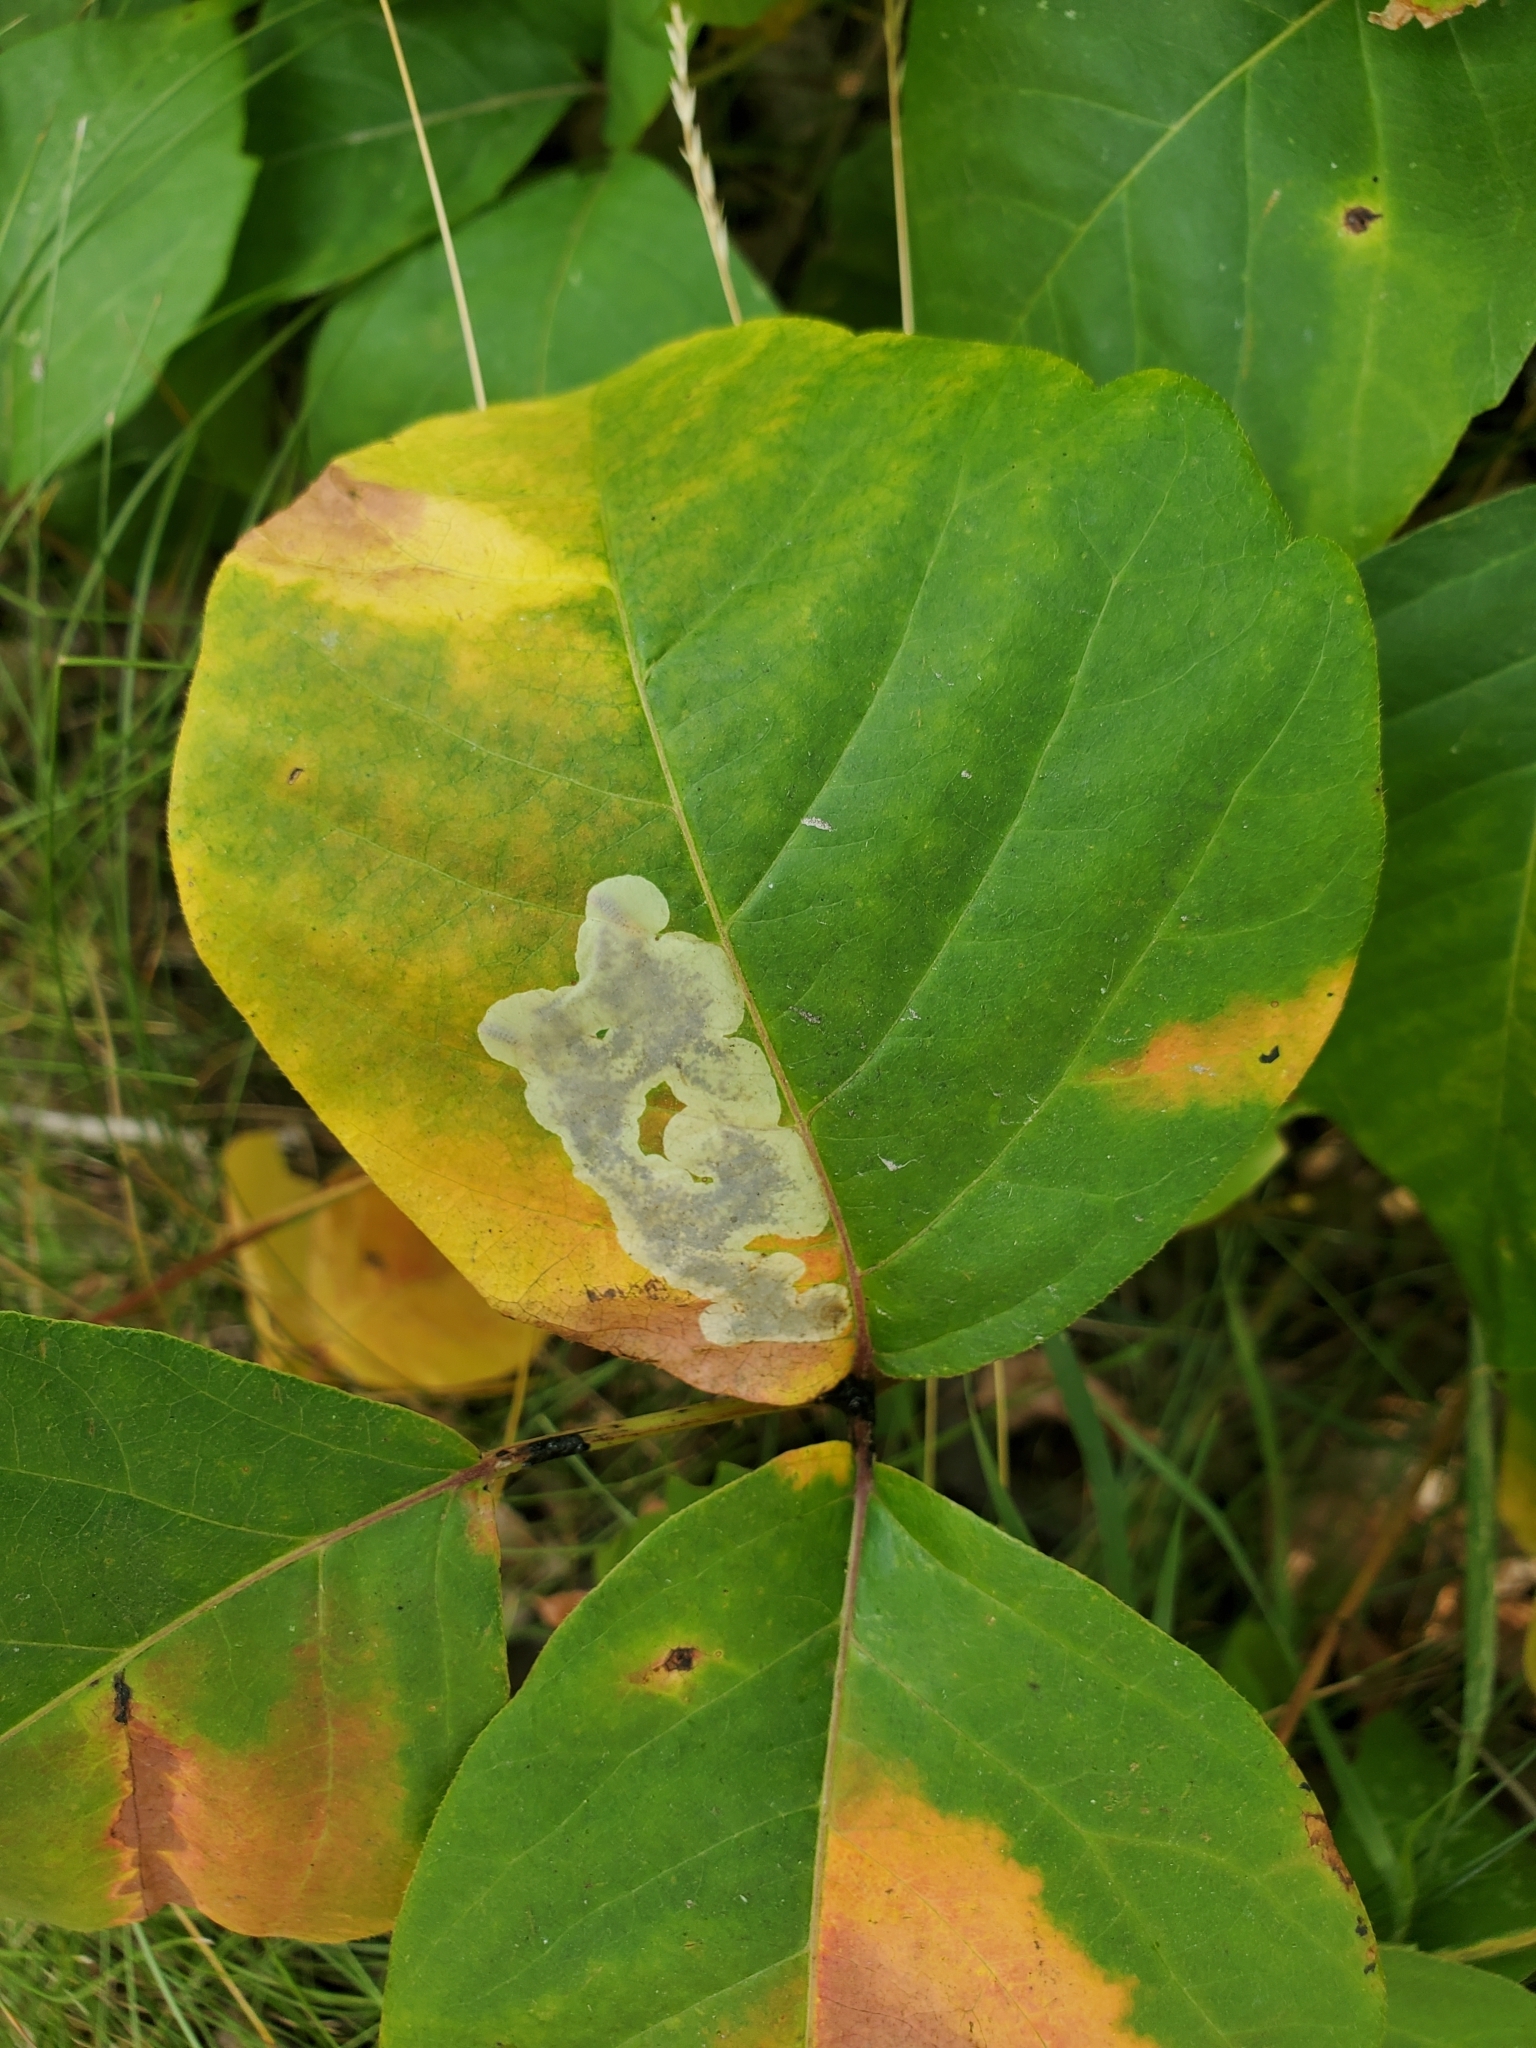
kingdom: Animalia
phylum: Arthropoda
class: Insecta
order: Lepidoptera
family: Gracillariidae
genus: Cameraria
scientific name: Cameraria guttifinitella
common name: Poison ivy leaf-miner moth
